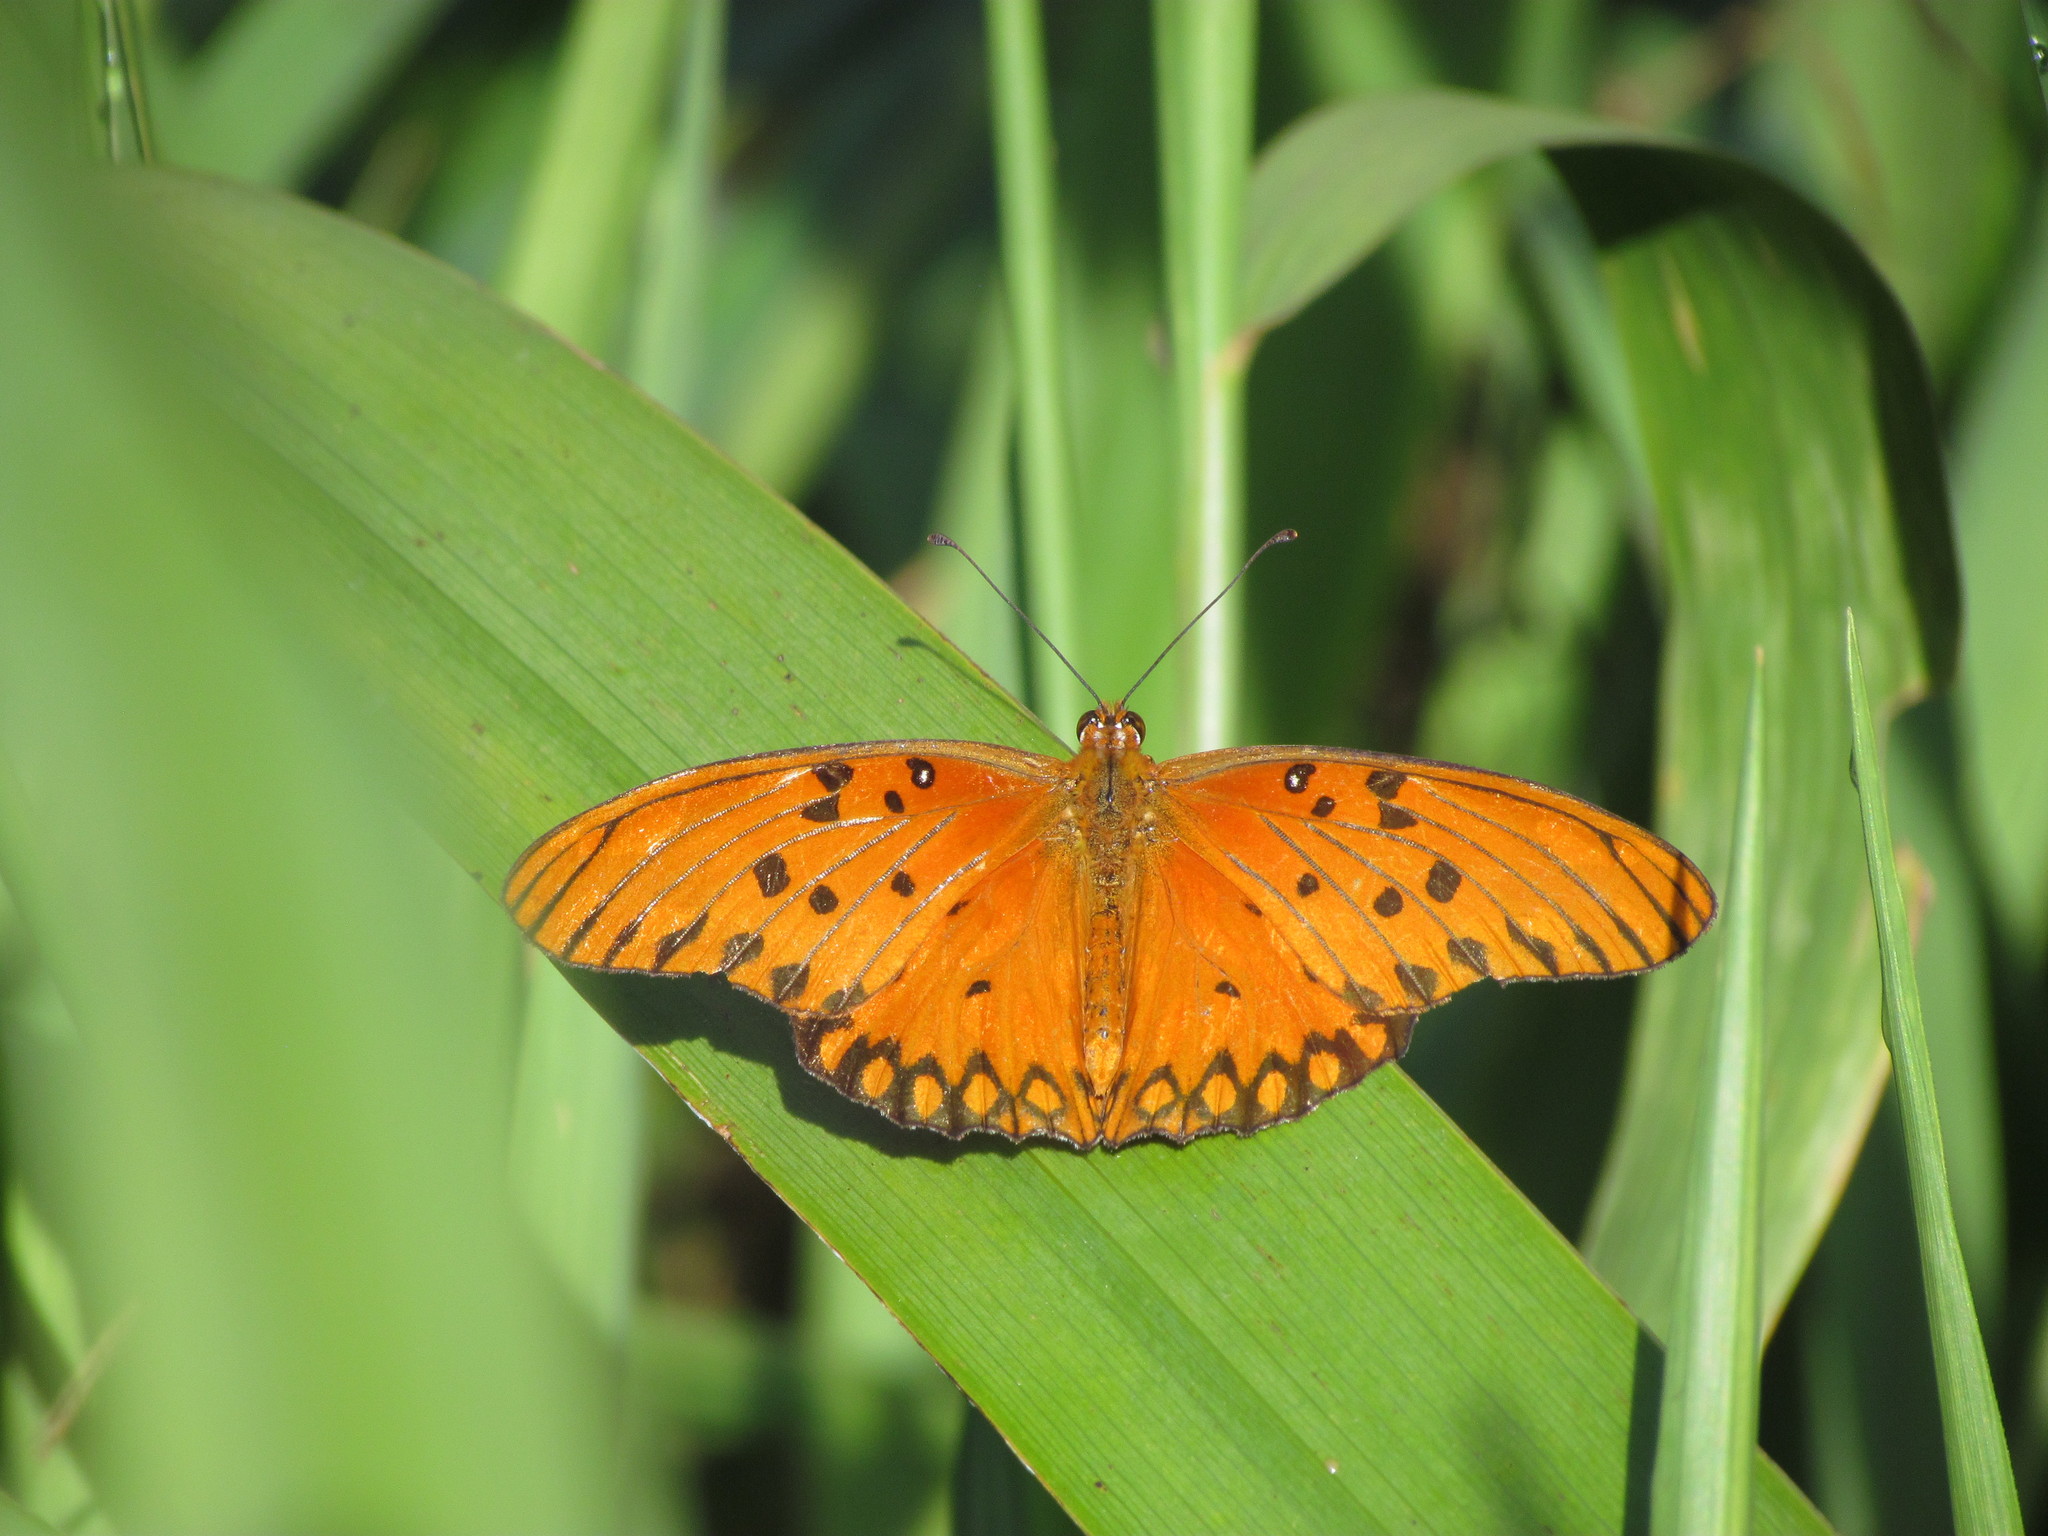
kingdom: Animalia
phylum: Arthropoda
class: Insecta
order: Lepidoptera
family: Nymphalidae
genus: Dione
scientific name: Dione vanillae
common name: Gulf fritillary
